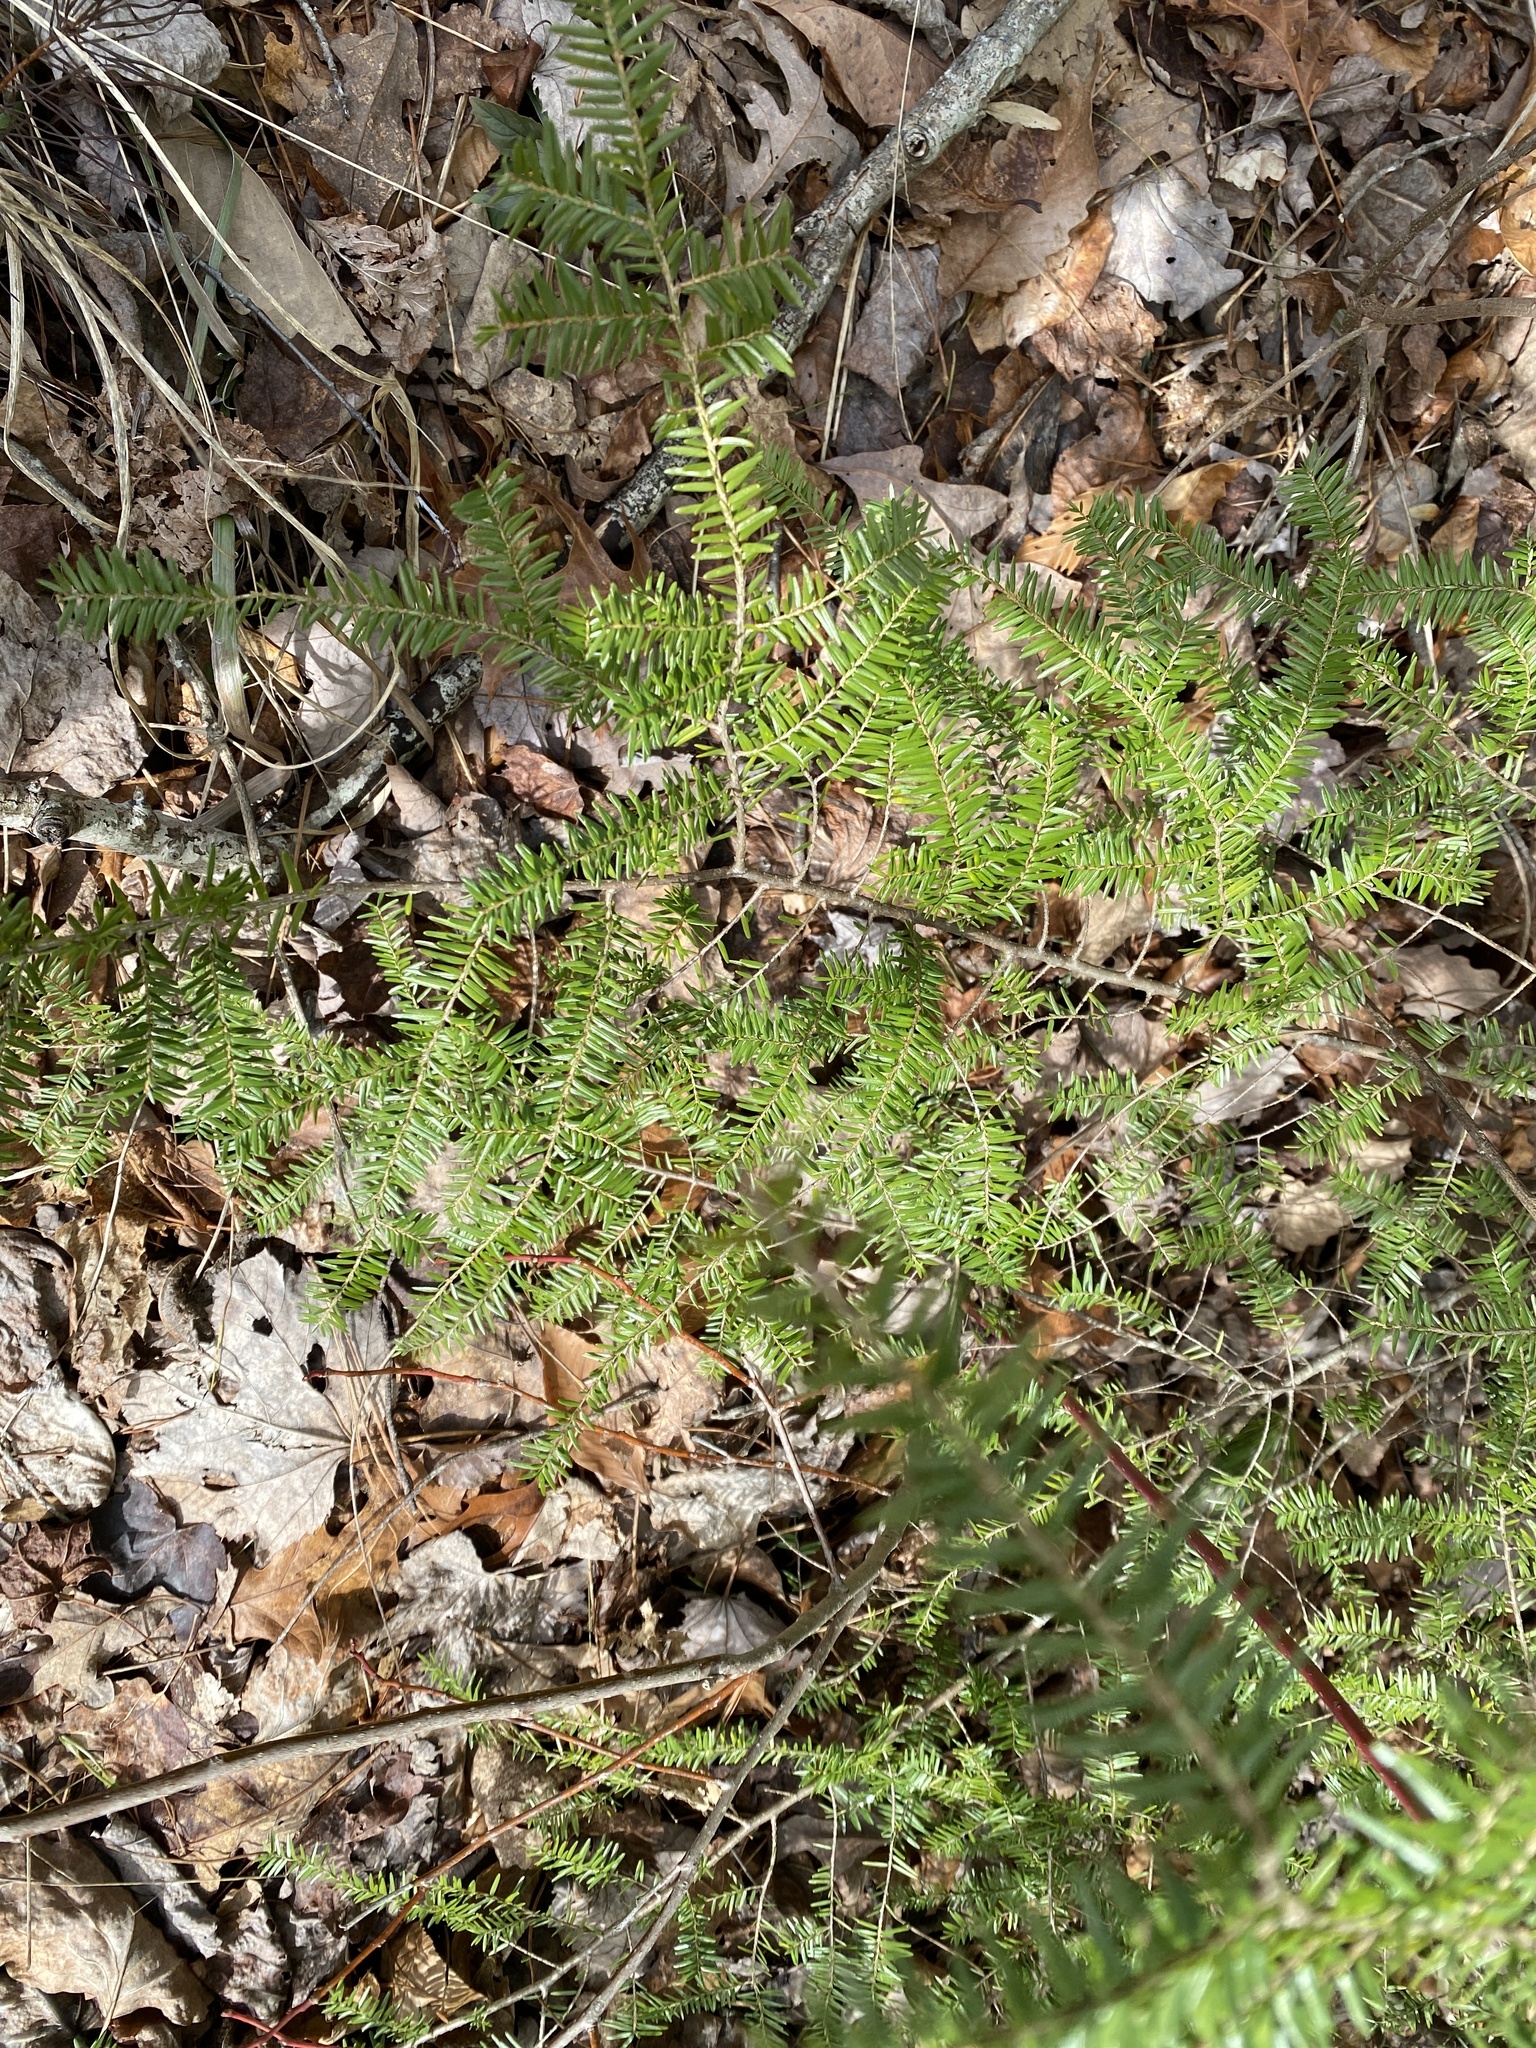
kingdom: Plantae
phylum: Tracheophyta
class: Pinopsida
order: Pinales
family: Pinaceae
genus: Tsuga
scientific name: Tsuga canadensis
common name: Eastern hemlock
